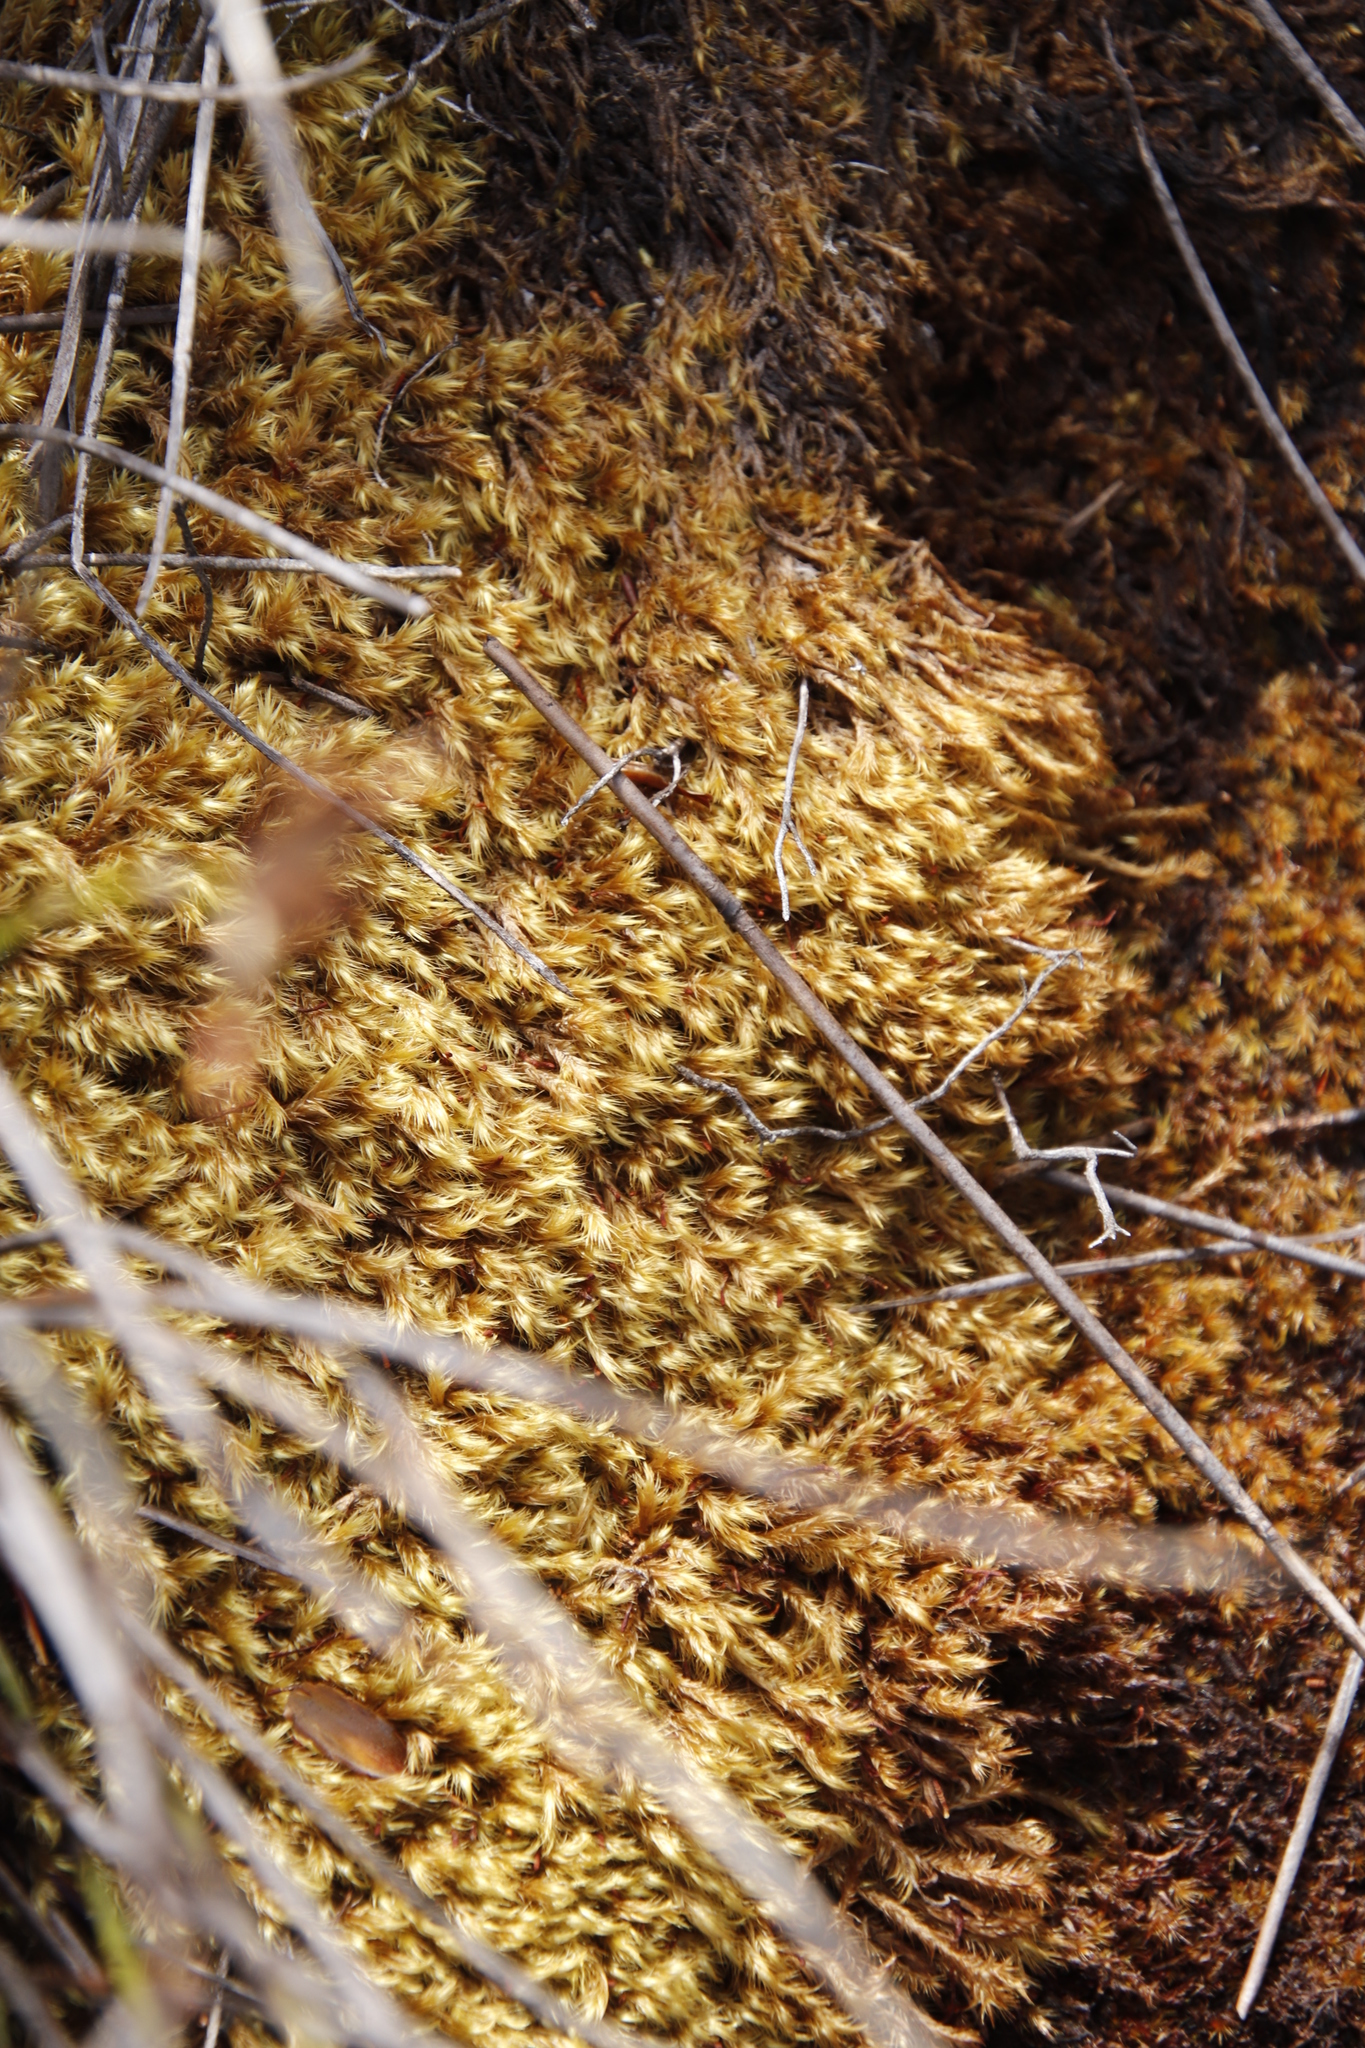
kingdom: Plantae
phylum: Bryophyta
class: Bryopsida
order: Dicranales
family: Dicranaceae
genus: Dicranoloma
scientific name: Dicranoloma billardieri
